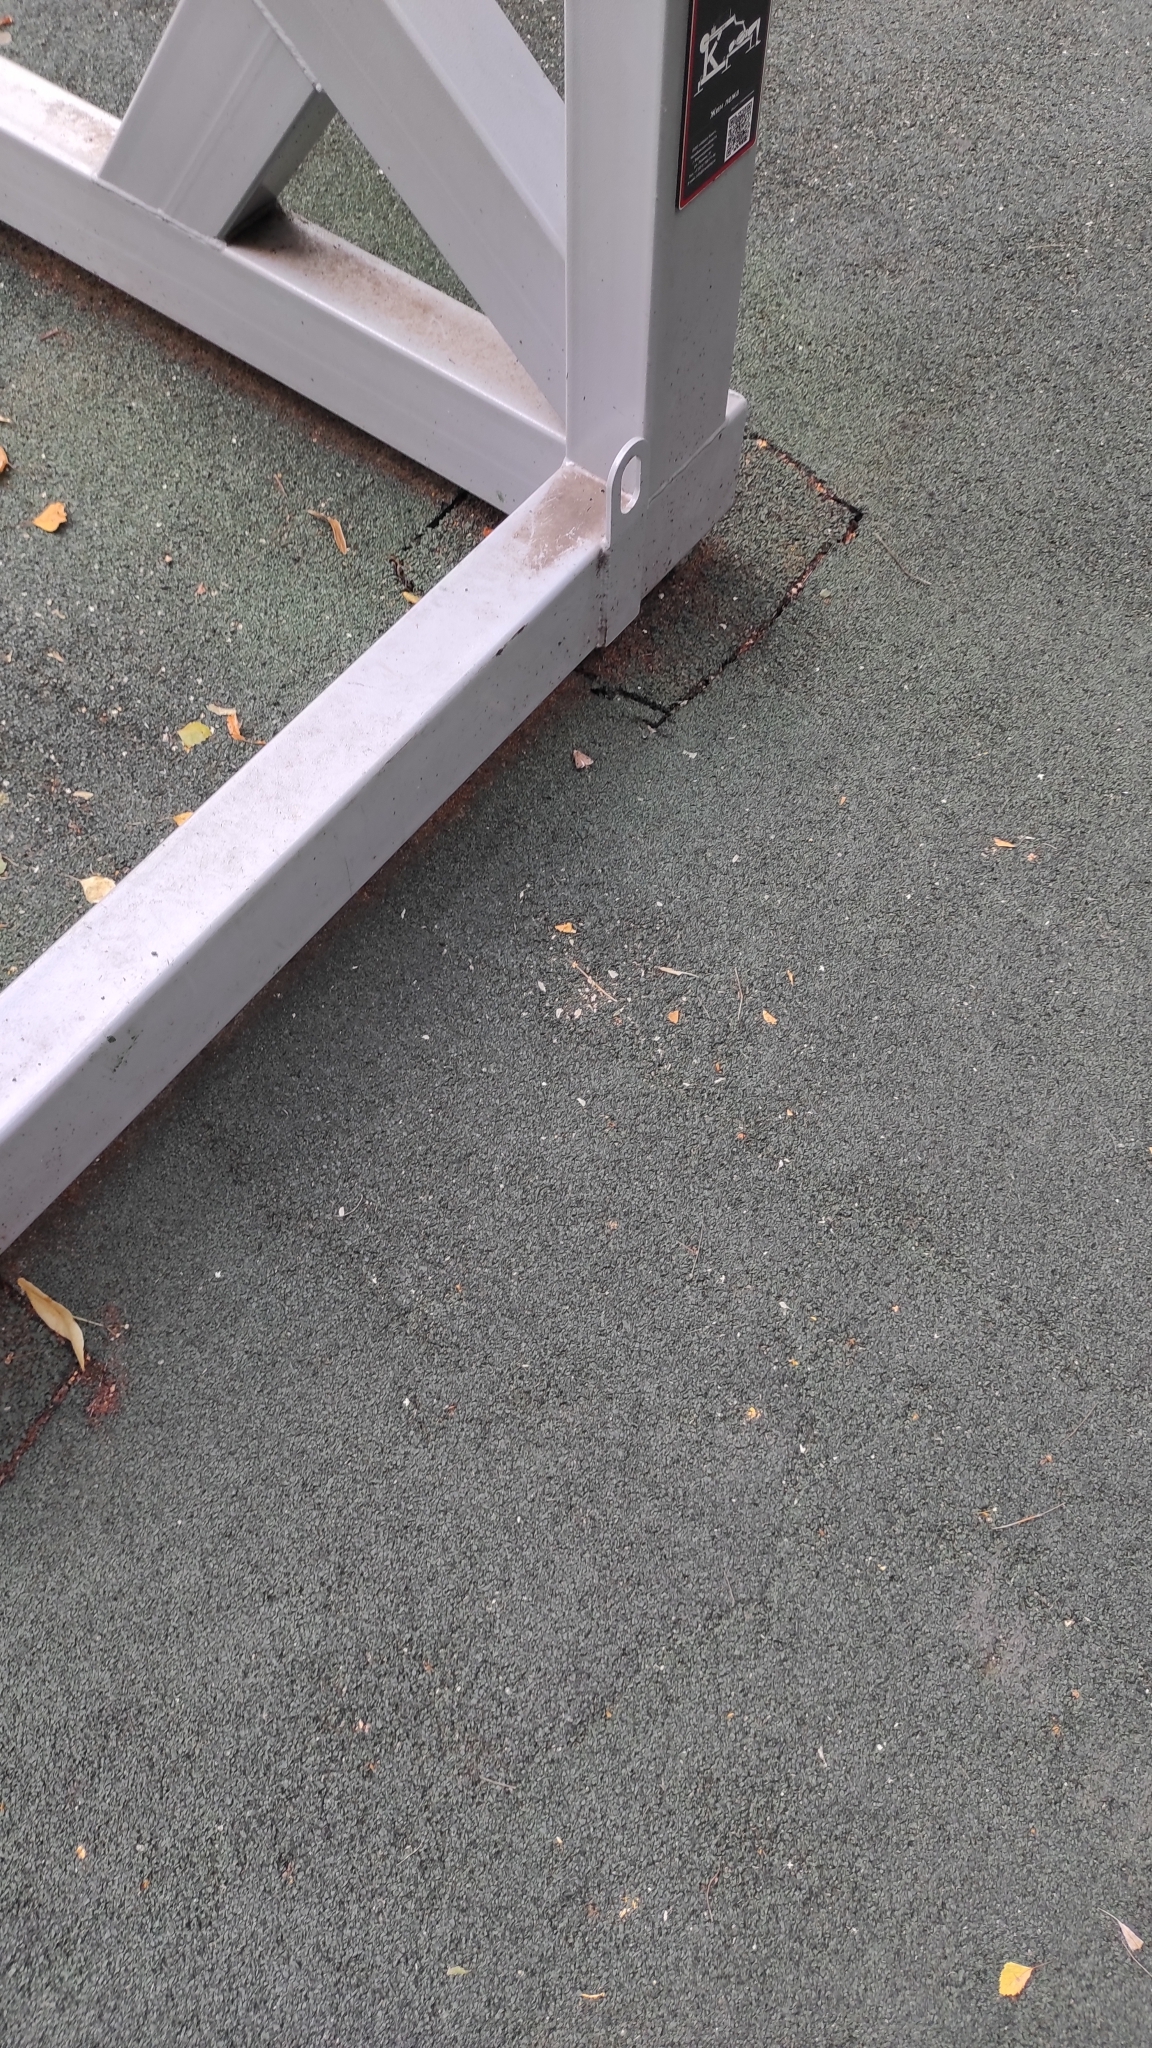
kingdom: Animalia
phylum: Arthropoda
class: Insecta
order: Lepidoptera
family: Noctuidae
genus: Agrotis
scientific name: Agrotis exclamationis
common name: Heart and dart
